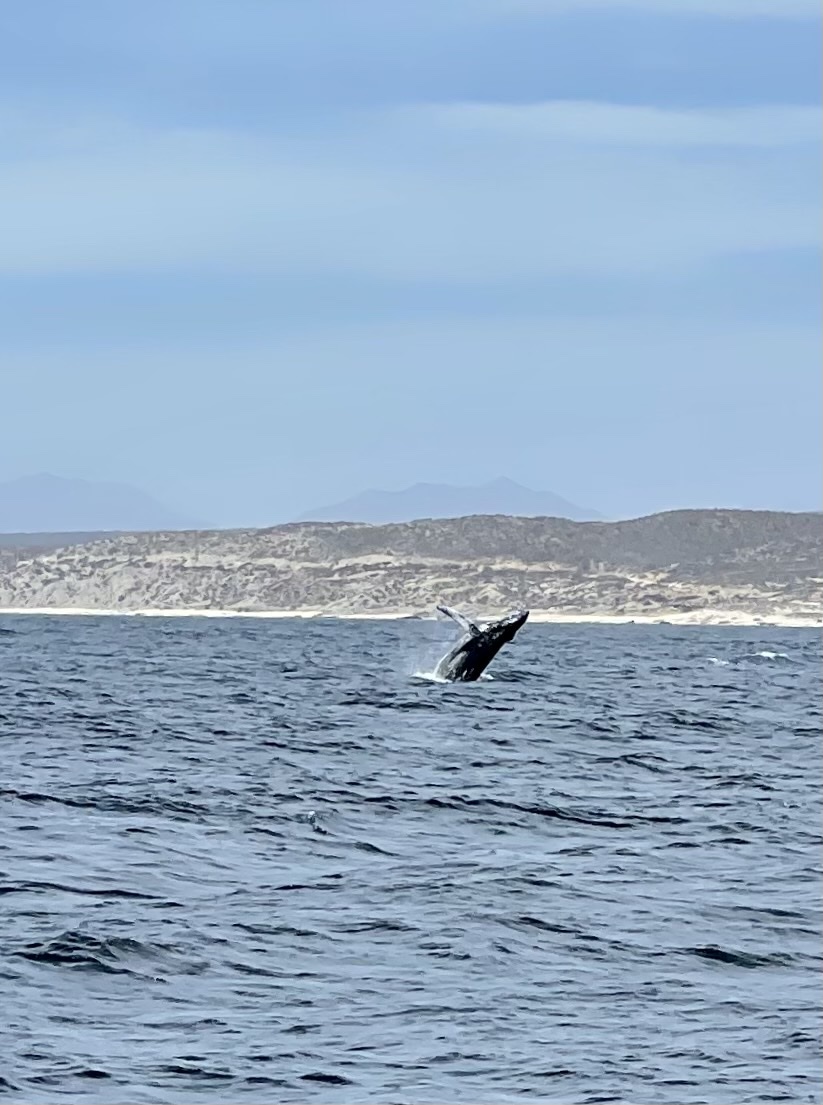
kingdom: Animalia
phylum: Chordata
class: Mammalia
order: Cetacea
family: Balaenopteridae
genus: Megaptera
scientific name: Megaptera novaeangliae
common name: Humpback whale
